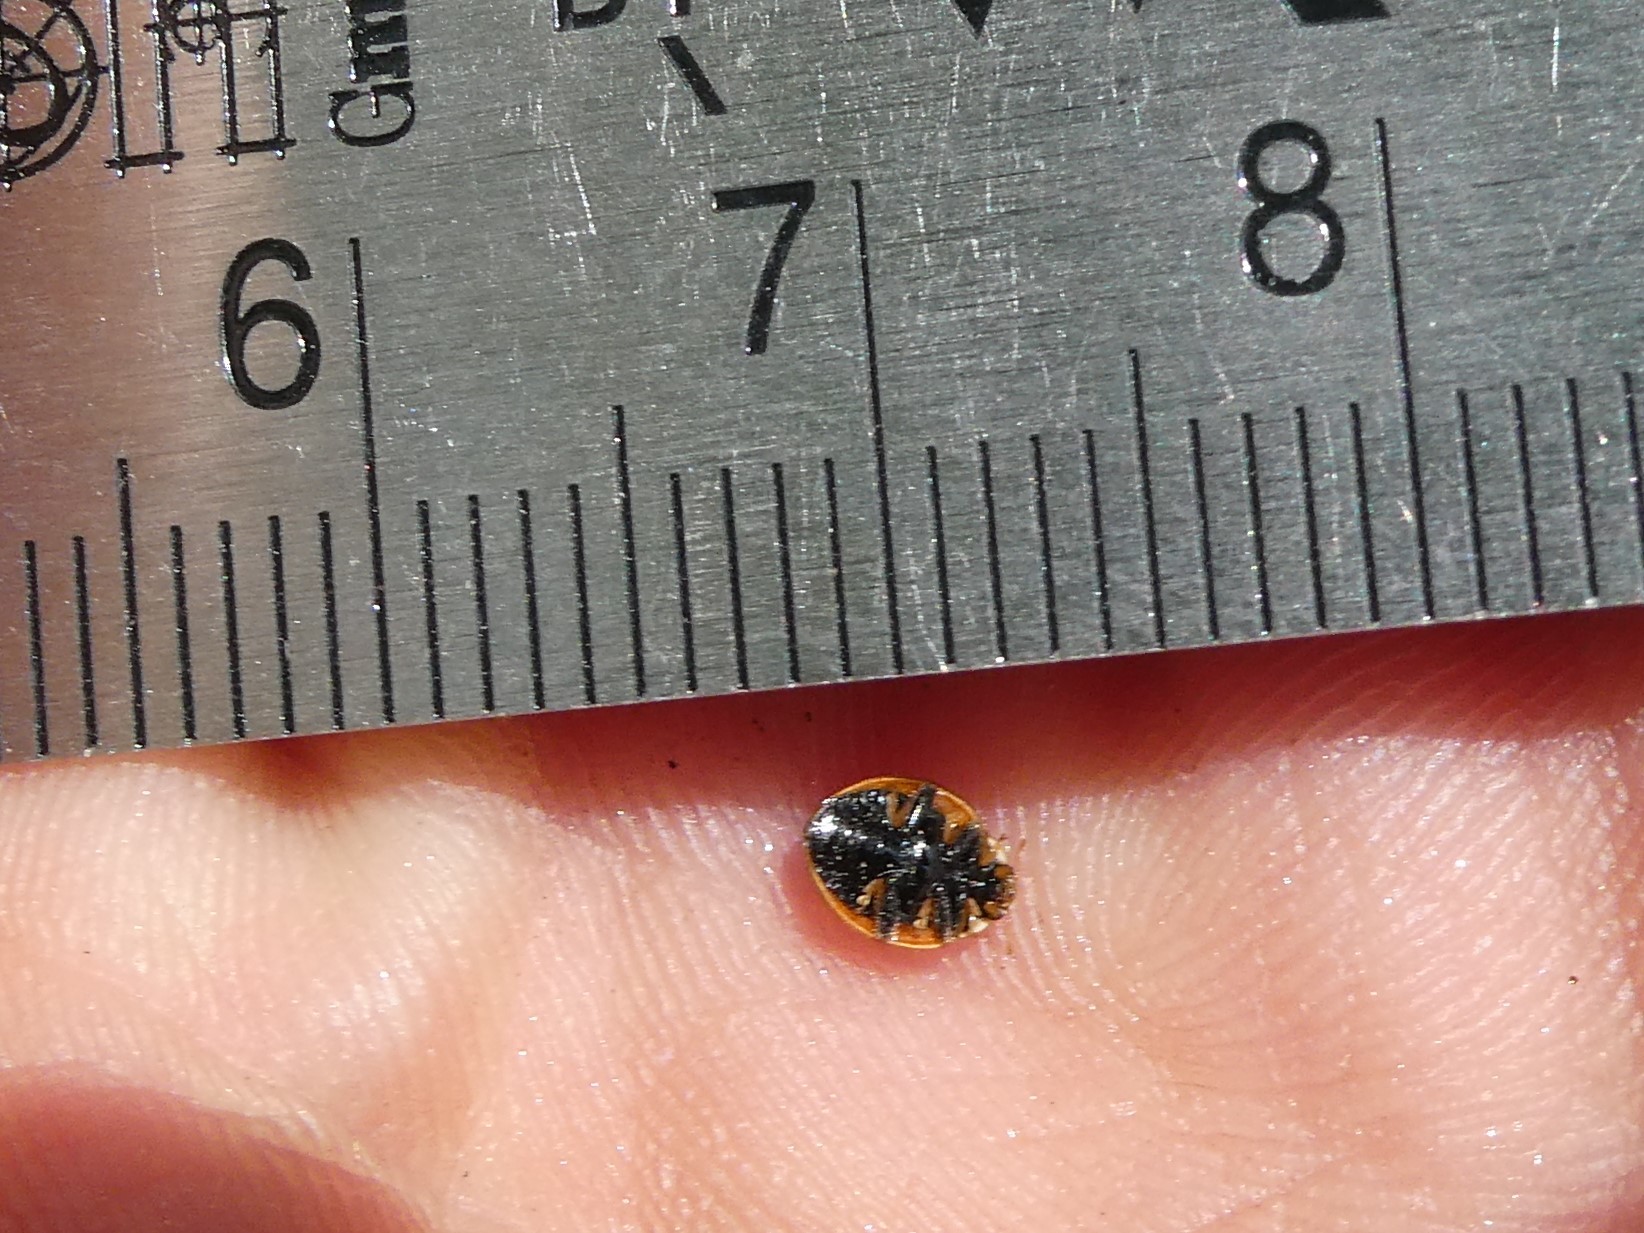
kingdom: Animalia
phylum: Arthropoda
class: Insecta
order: Coleoptera
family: Coccinellidae
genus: Cycloneda
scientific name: Cycloneda munda
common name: Polished lady beetle
